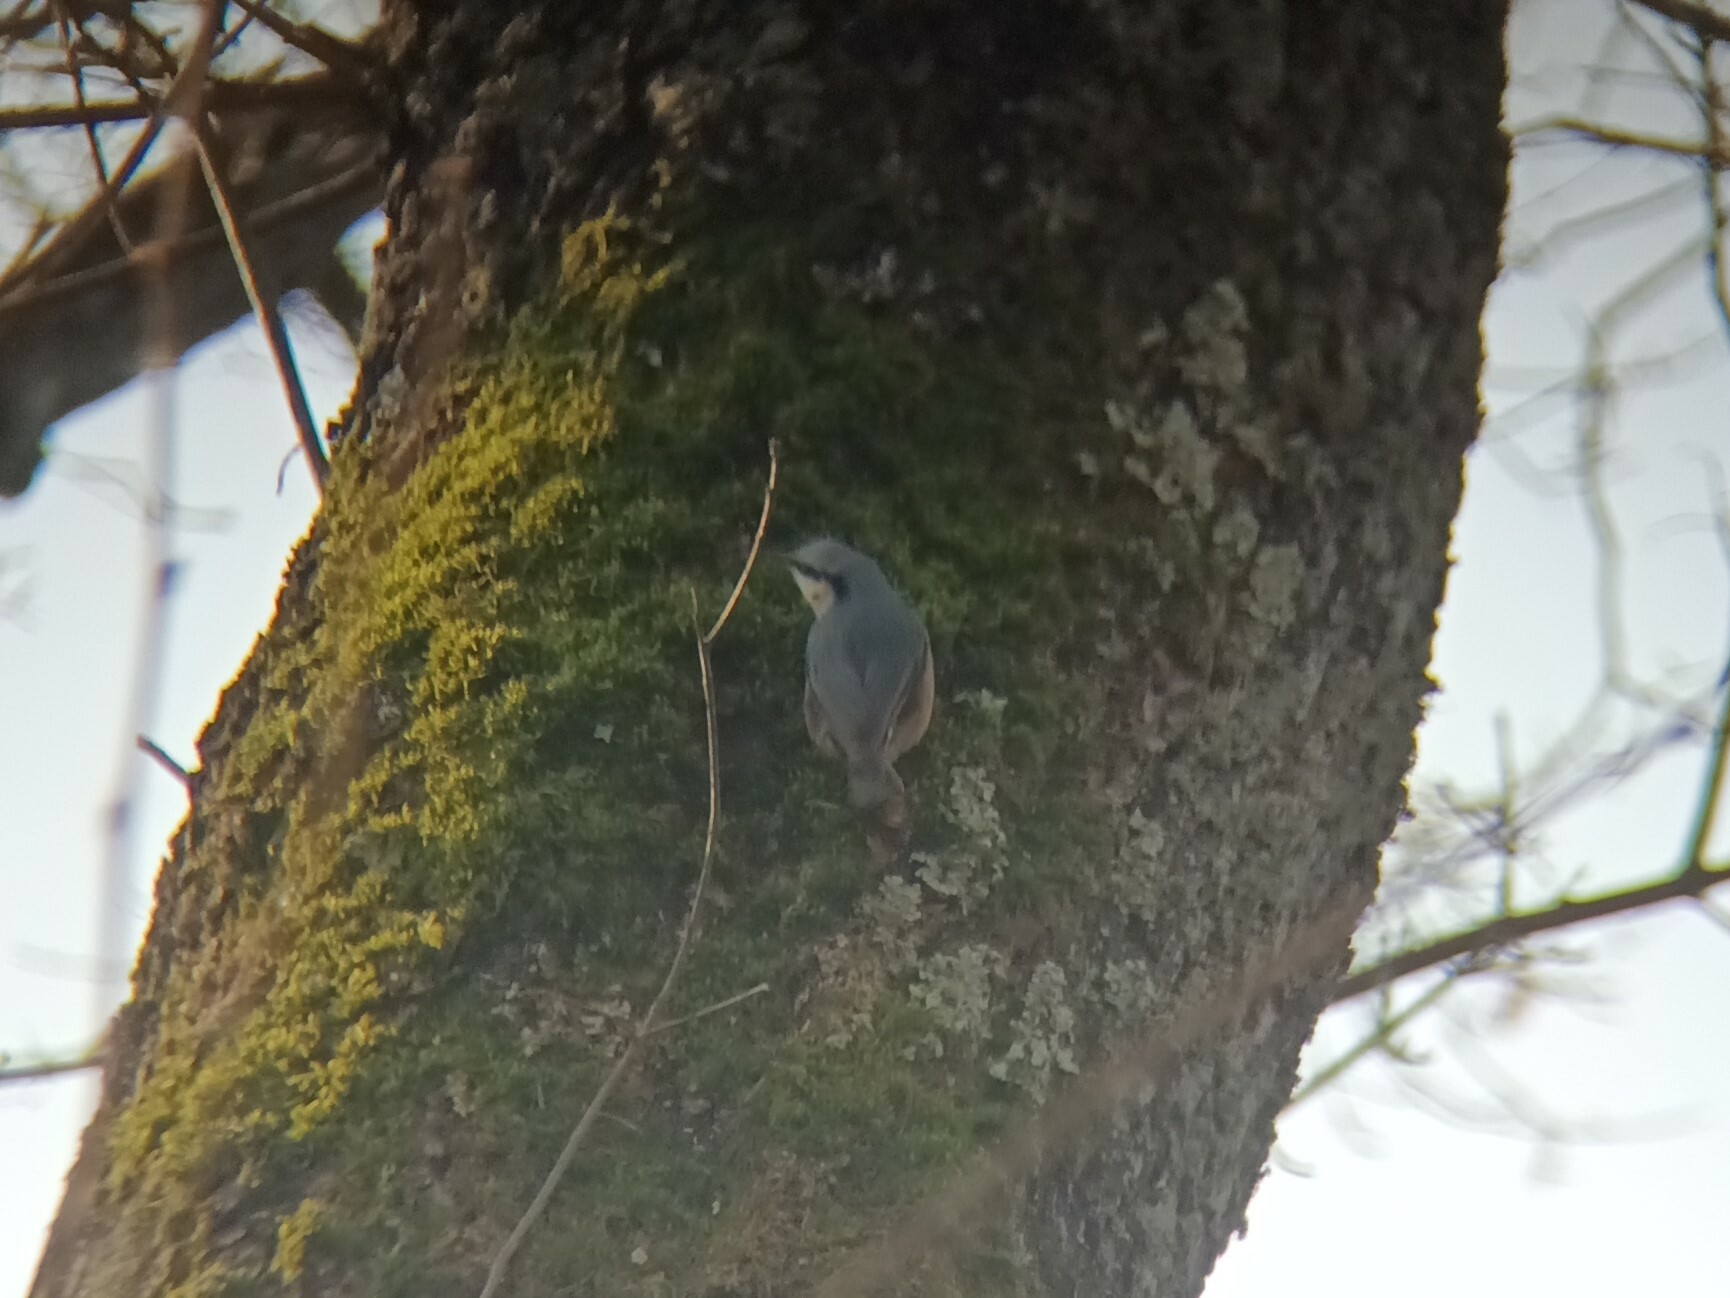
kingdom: Animalia
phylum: Chordata
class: Aves
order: Passeriformes
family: Sittidae
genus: Sitta
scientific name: Sitta europaea
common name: Eurasian nuthatch
